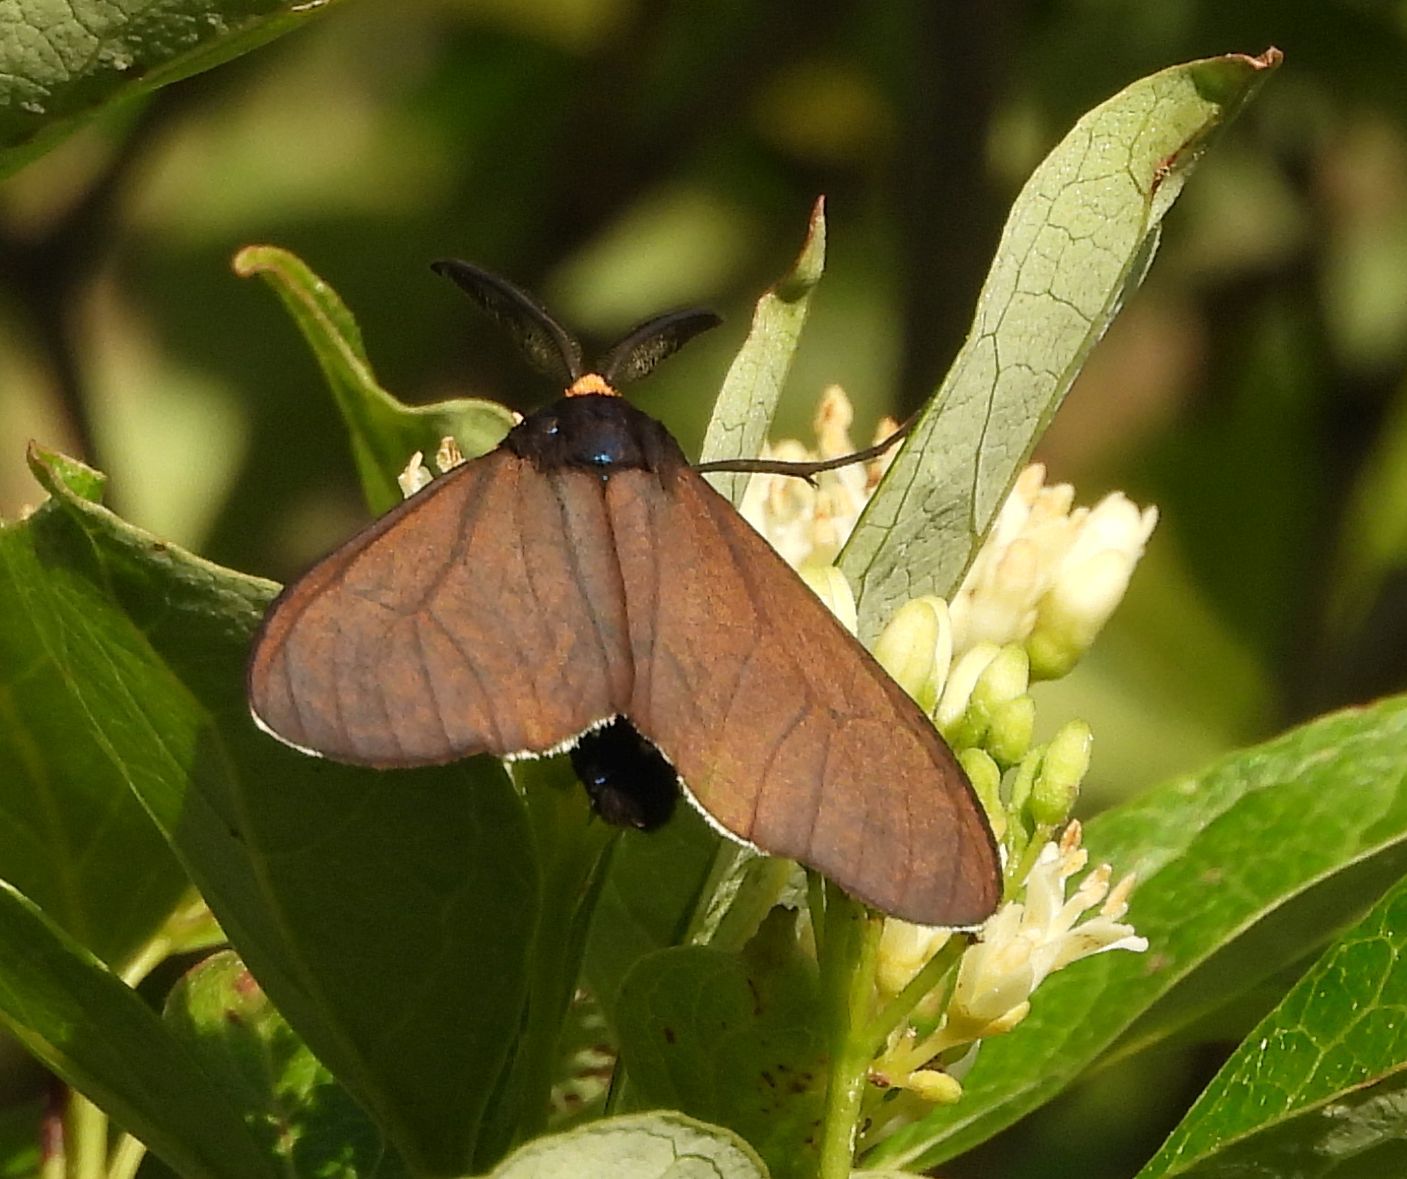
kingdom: Animalia
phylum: Arthropoda
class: Insecta
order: Lepidoptera
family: Erebidae
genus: Ctenucha
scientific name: Ctenucha virginica
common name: Virginia ctenucha moth
